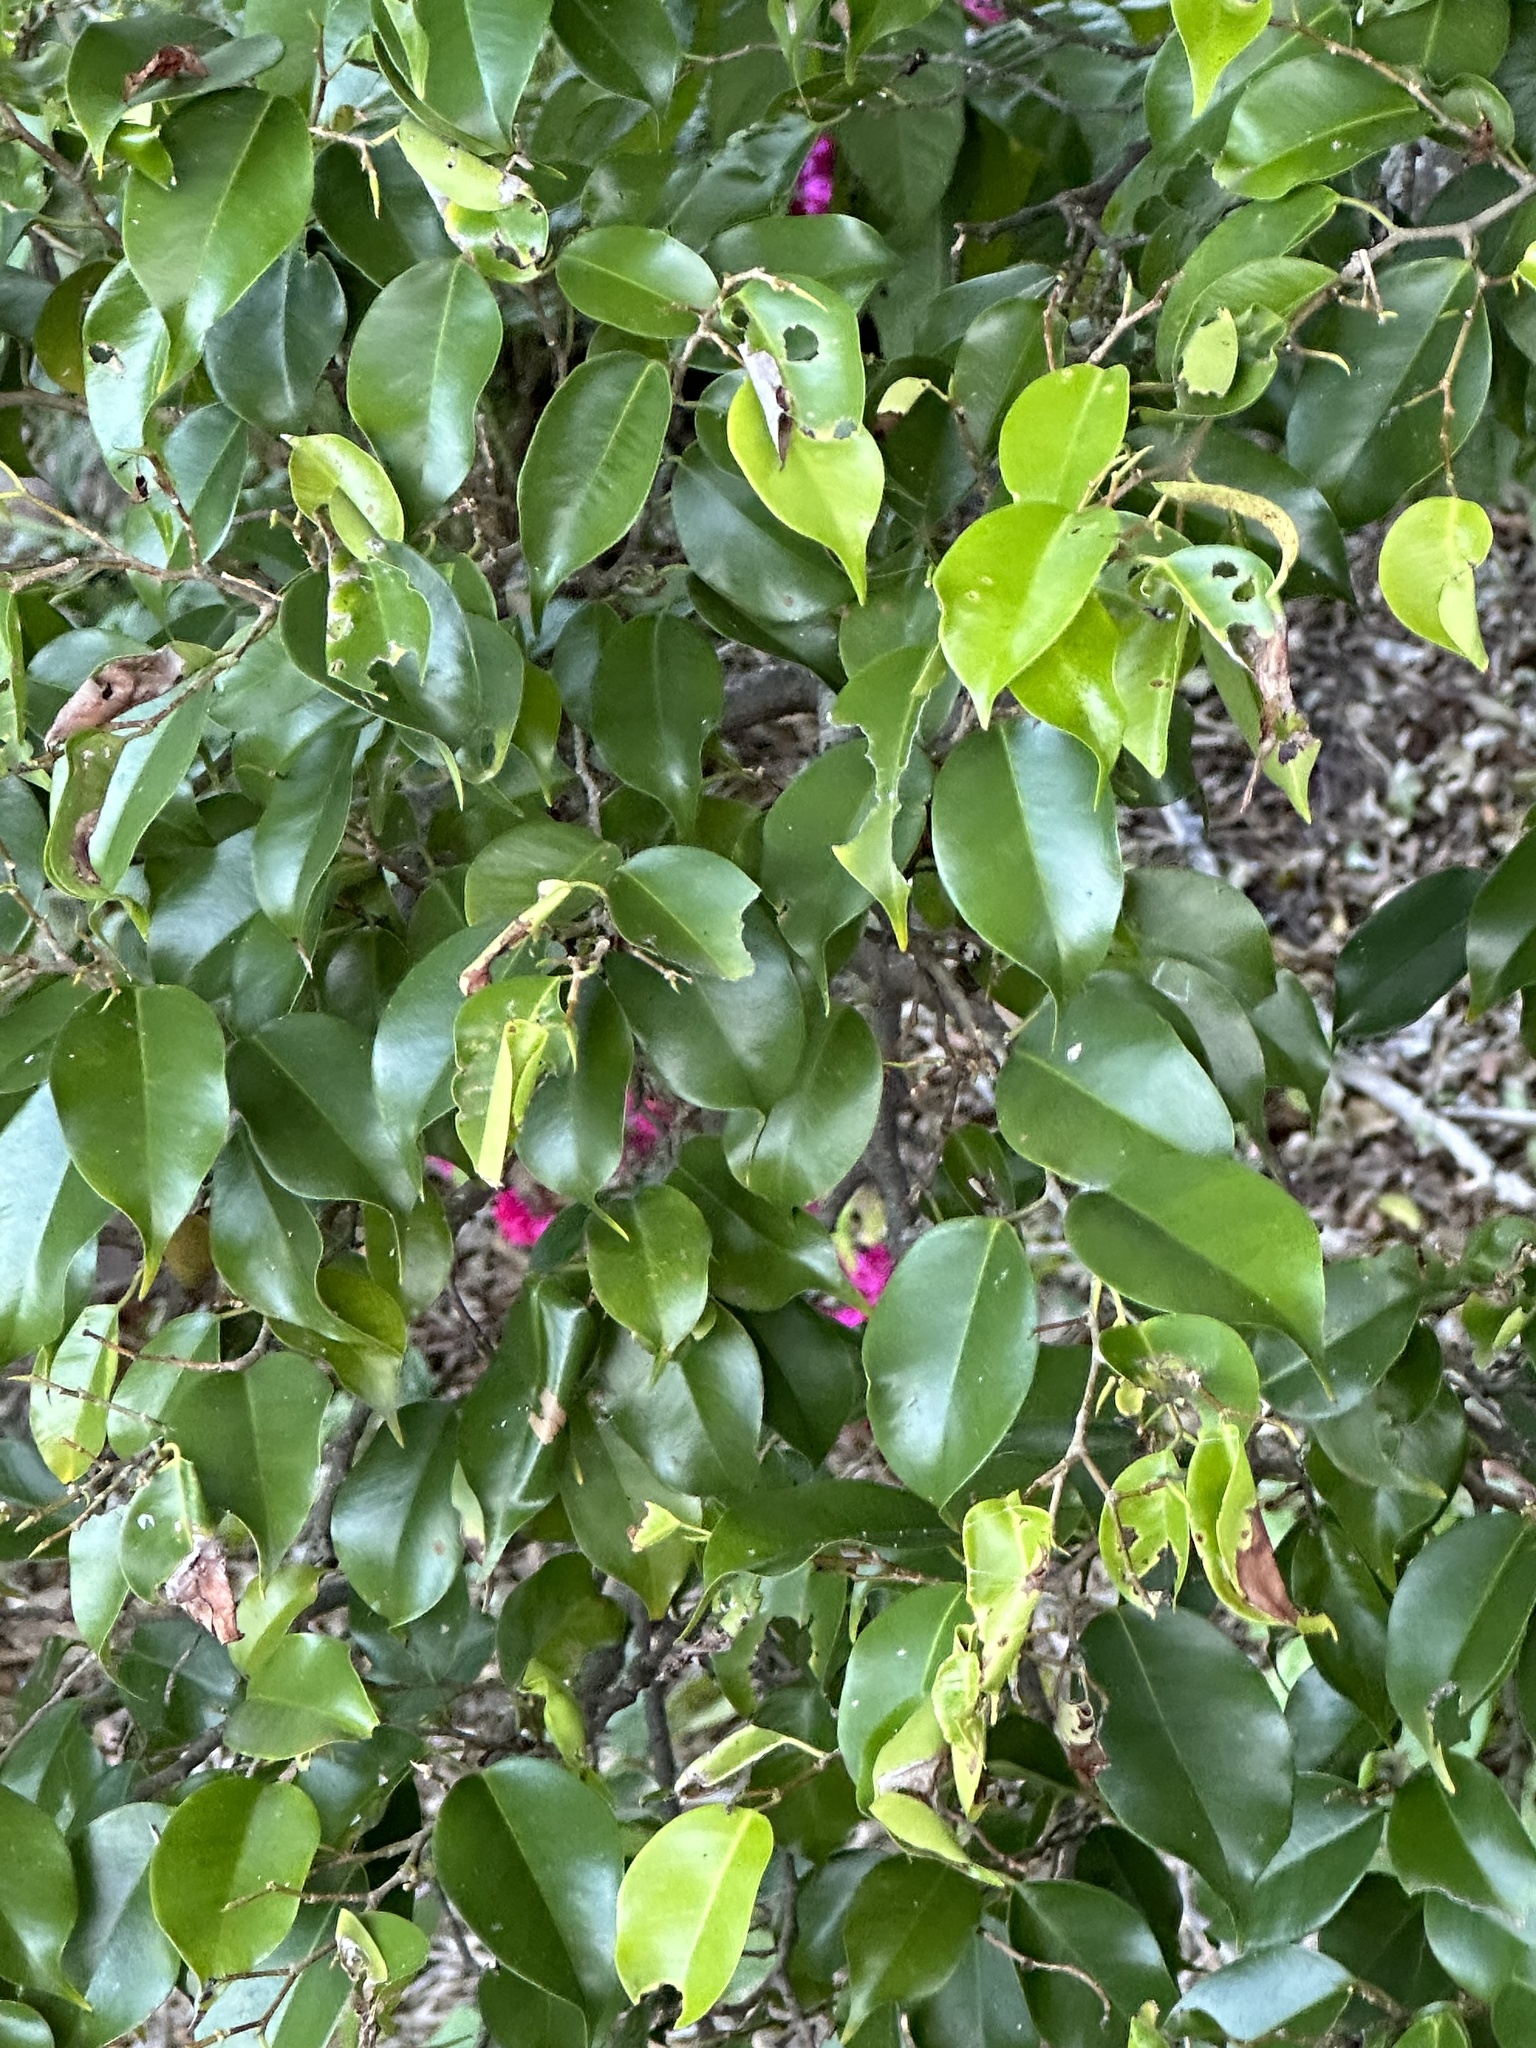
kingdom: Plantae
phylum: Tracheophyta
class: Magnoliopsida
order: Rosales
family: Moraceae
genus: Ficus
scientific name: Ficus benjamina
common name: Weeping fig
